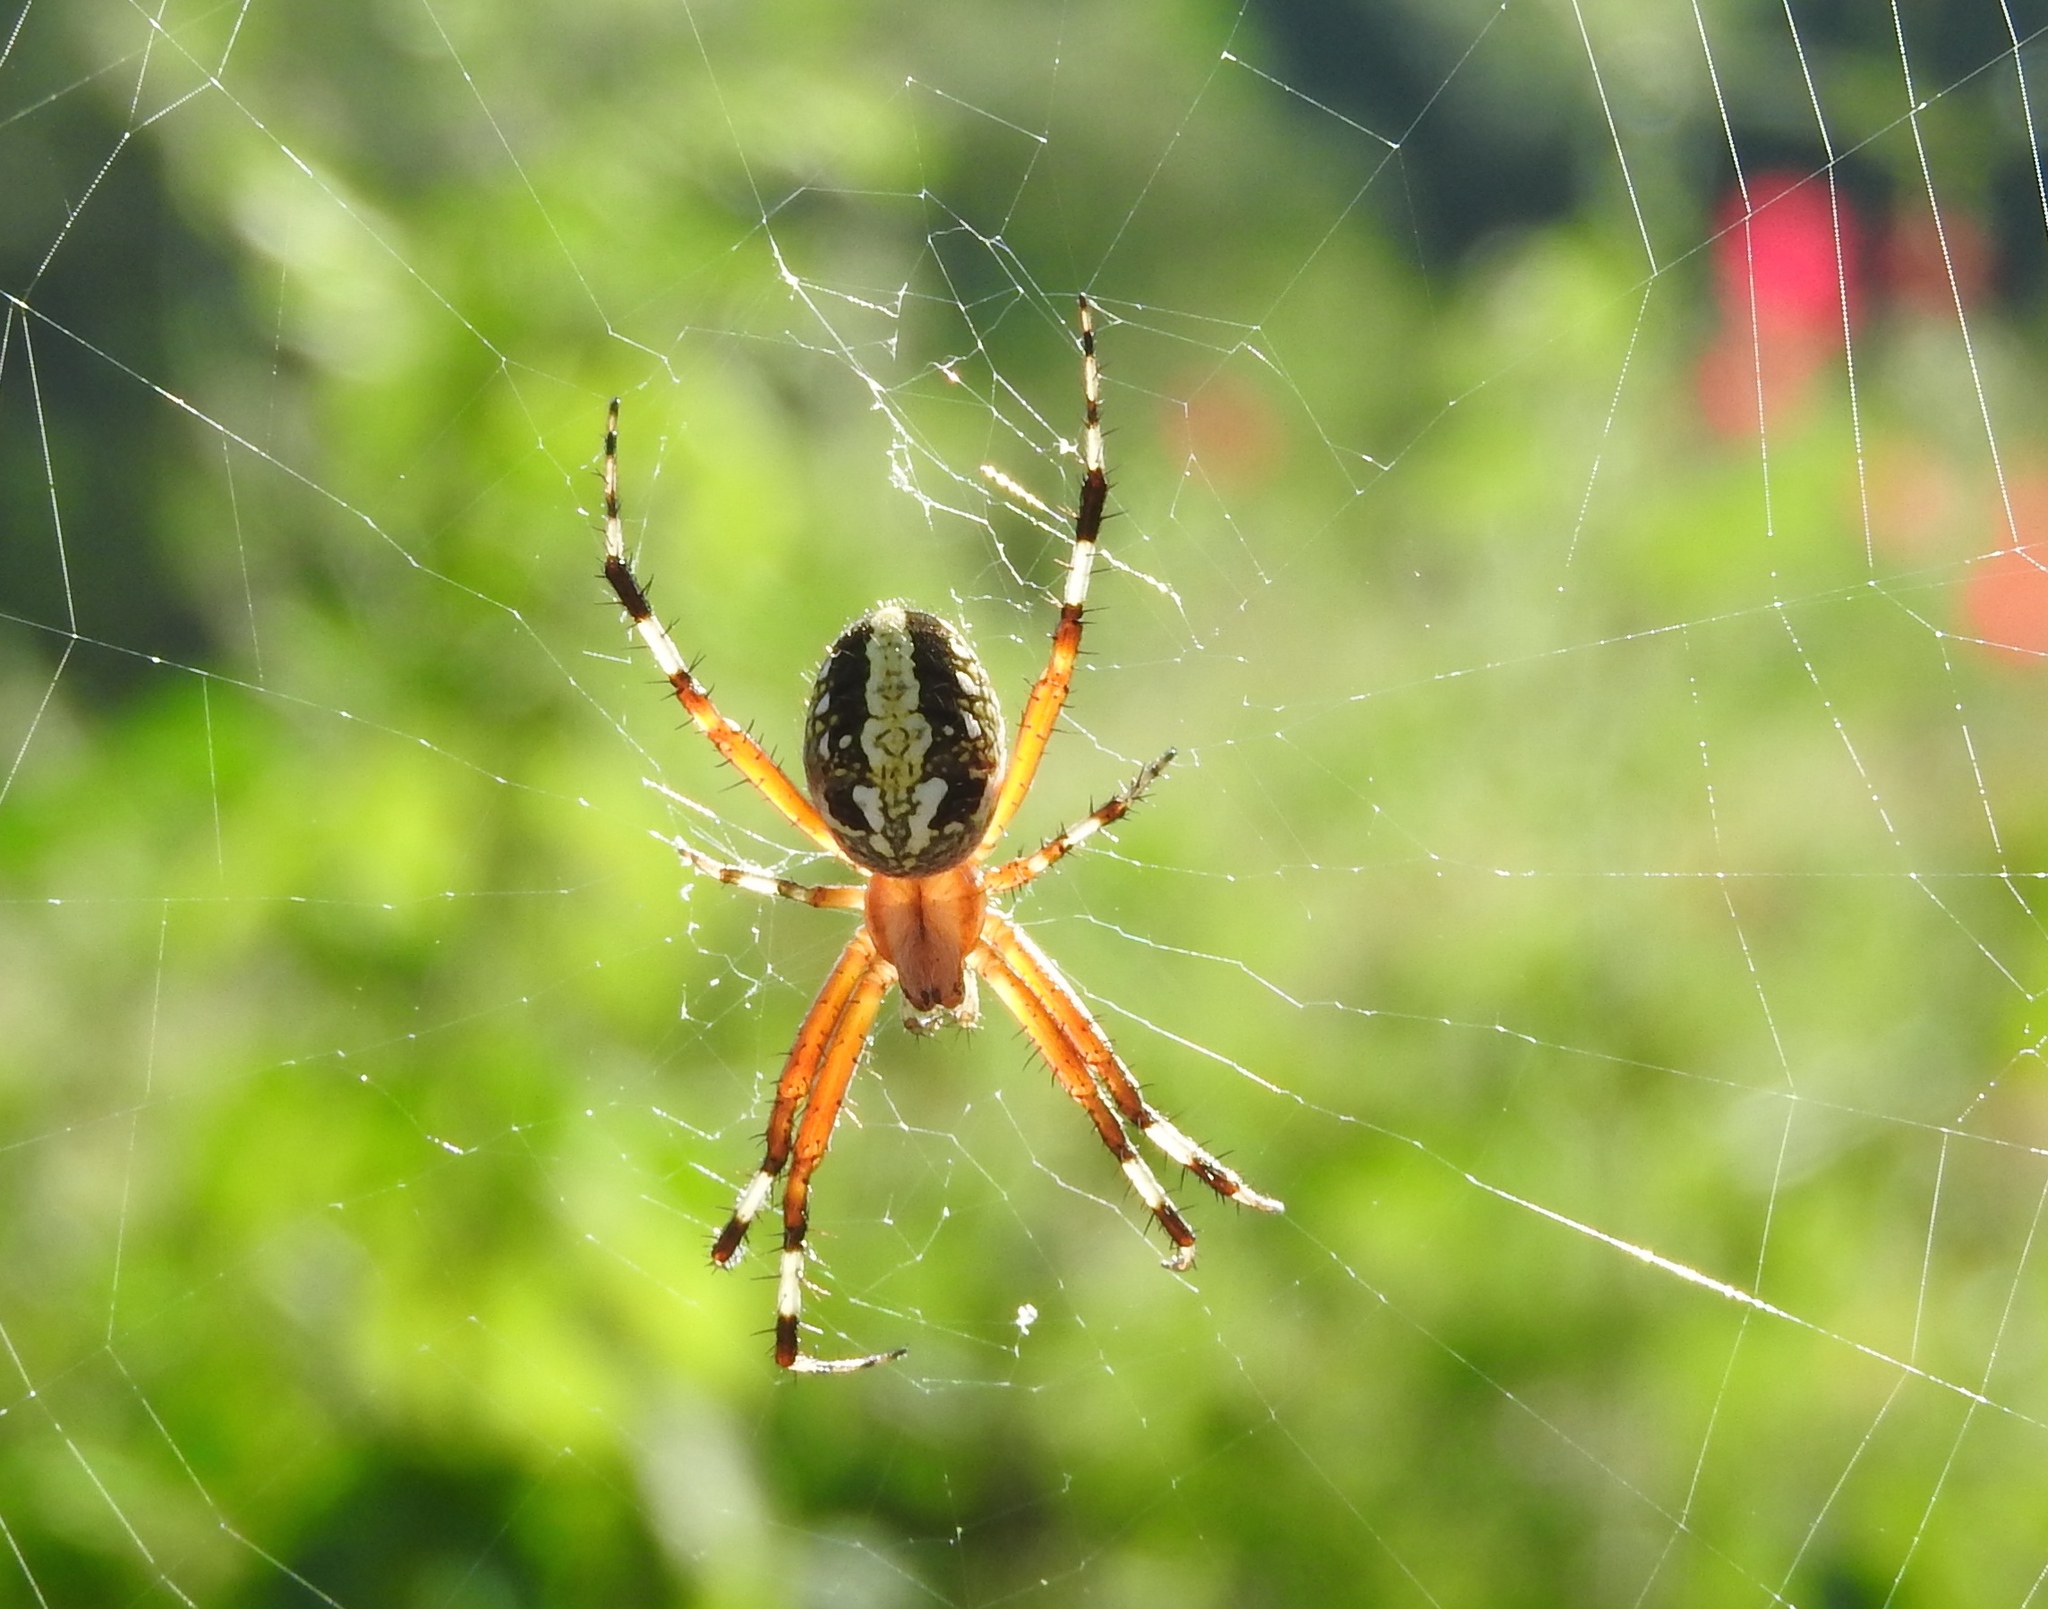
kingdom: Animalia
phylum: Arthropoda
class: Arachnida
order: Araneae
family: Araneidae
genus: Neoscona
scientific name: Neoscona oaxacensis
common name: Orb weavers
